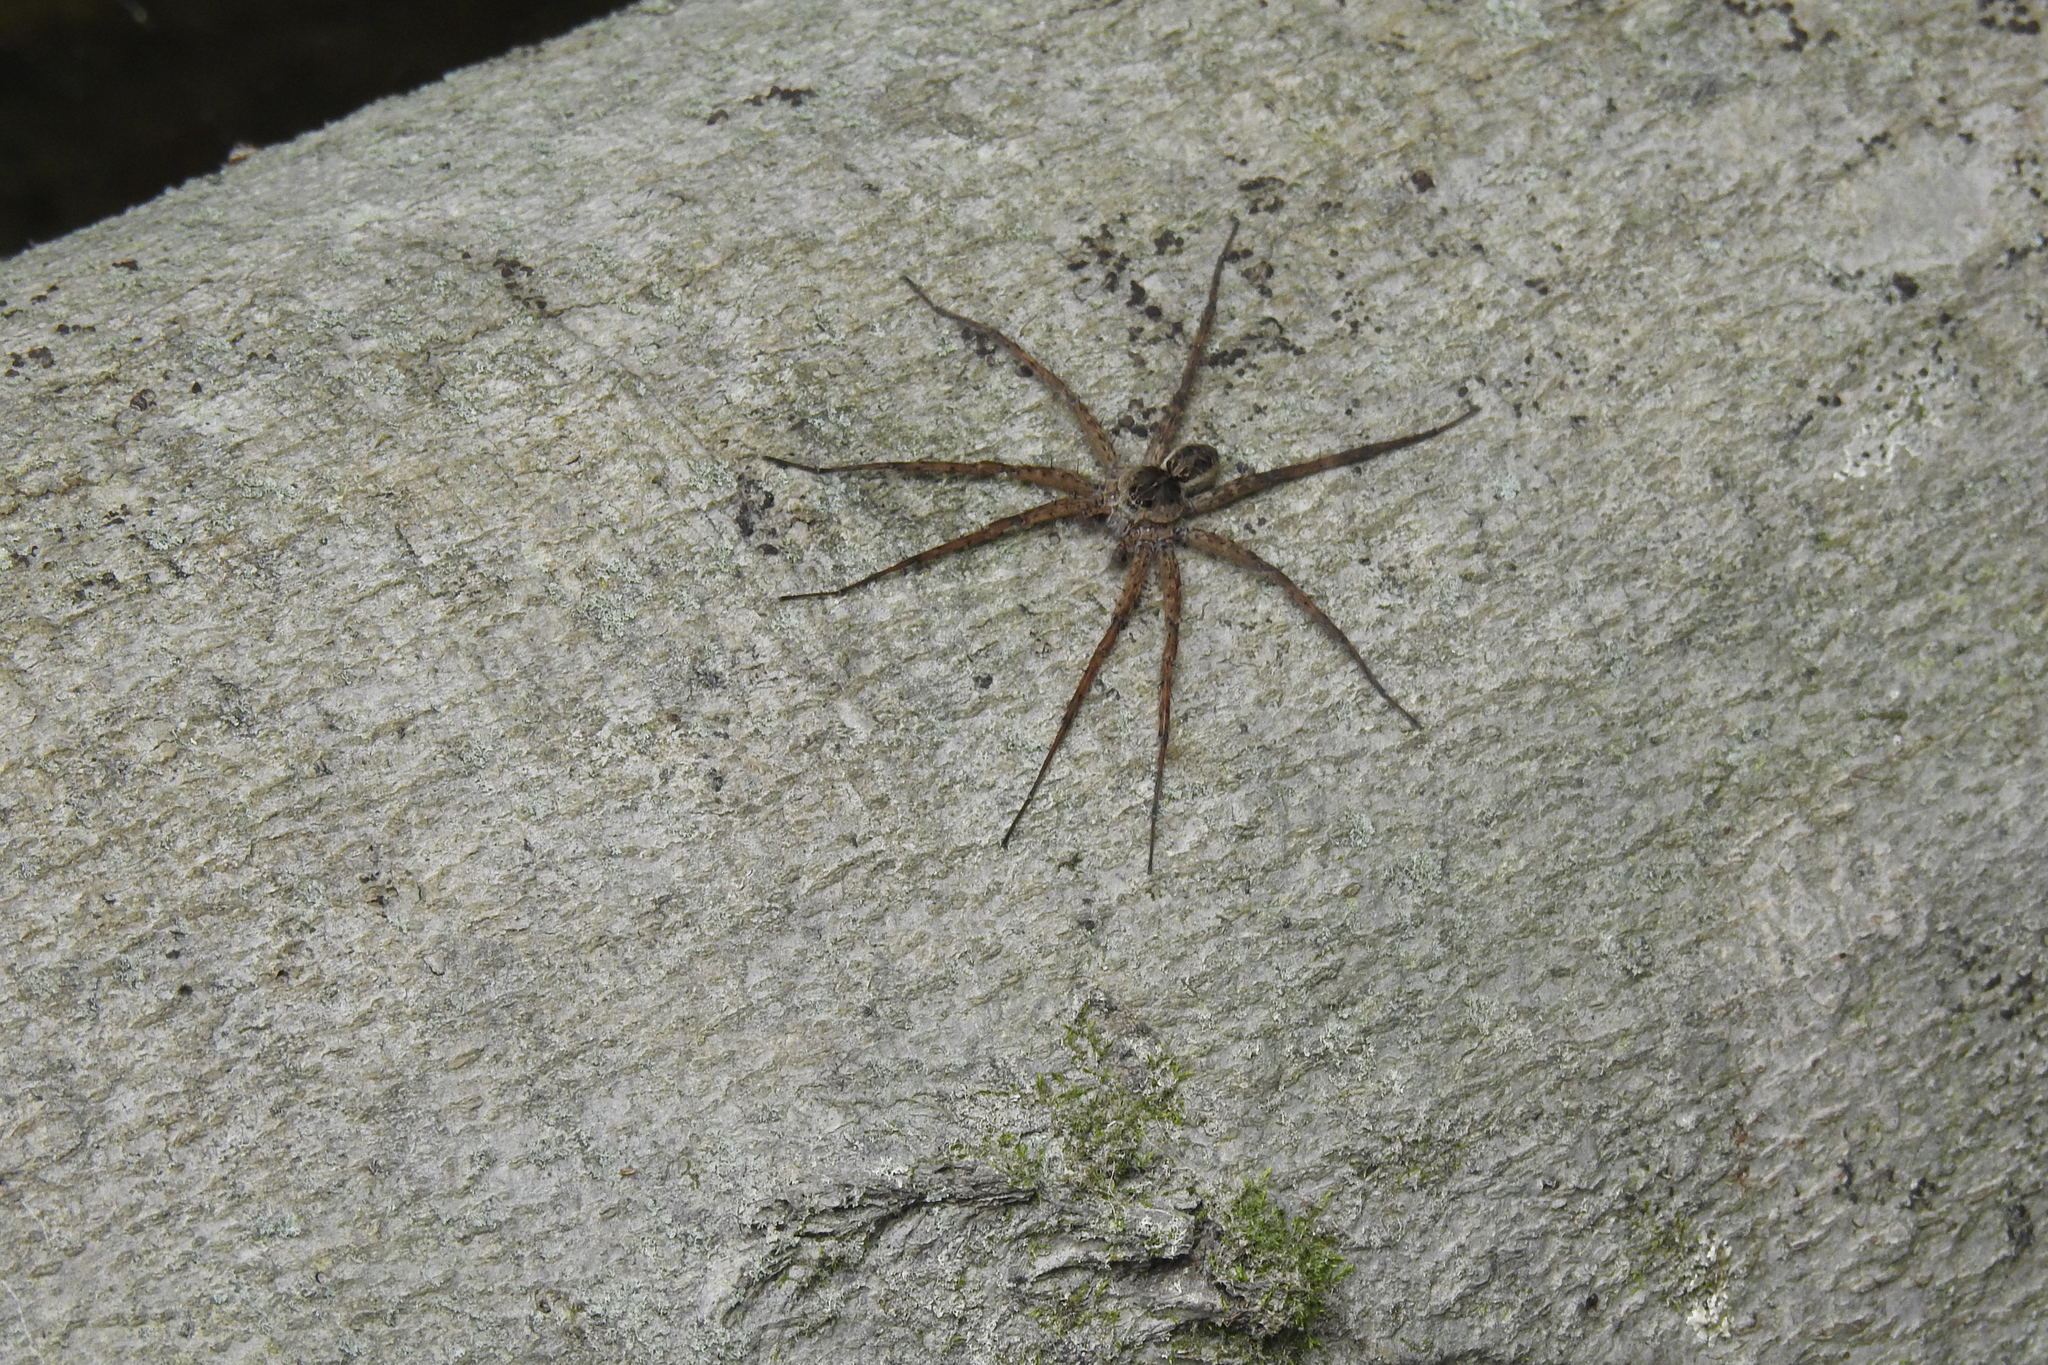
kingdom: Animalia
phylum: Arthropoda
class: Arachnida
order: Araneae
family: Pisauridae
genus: Dolomedes
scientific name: Dolomedes scriptus
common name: Striped fishing spider
